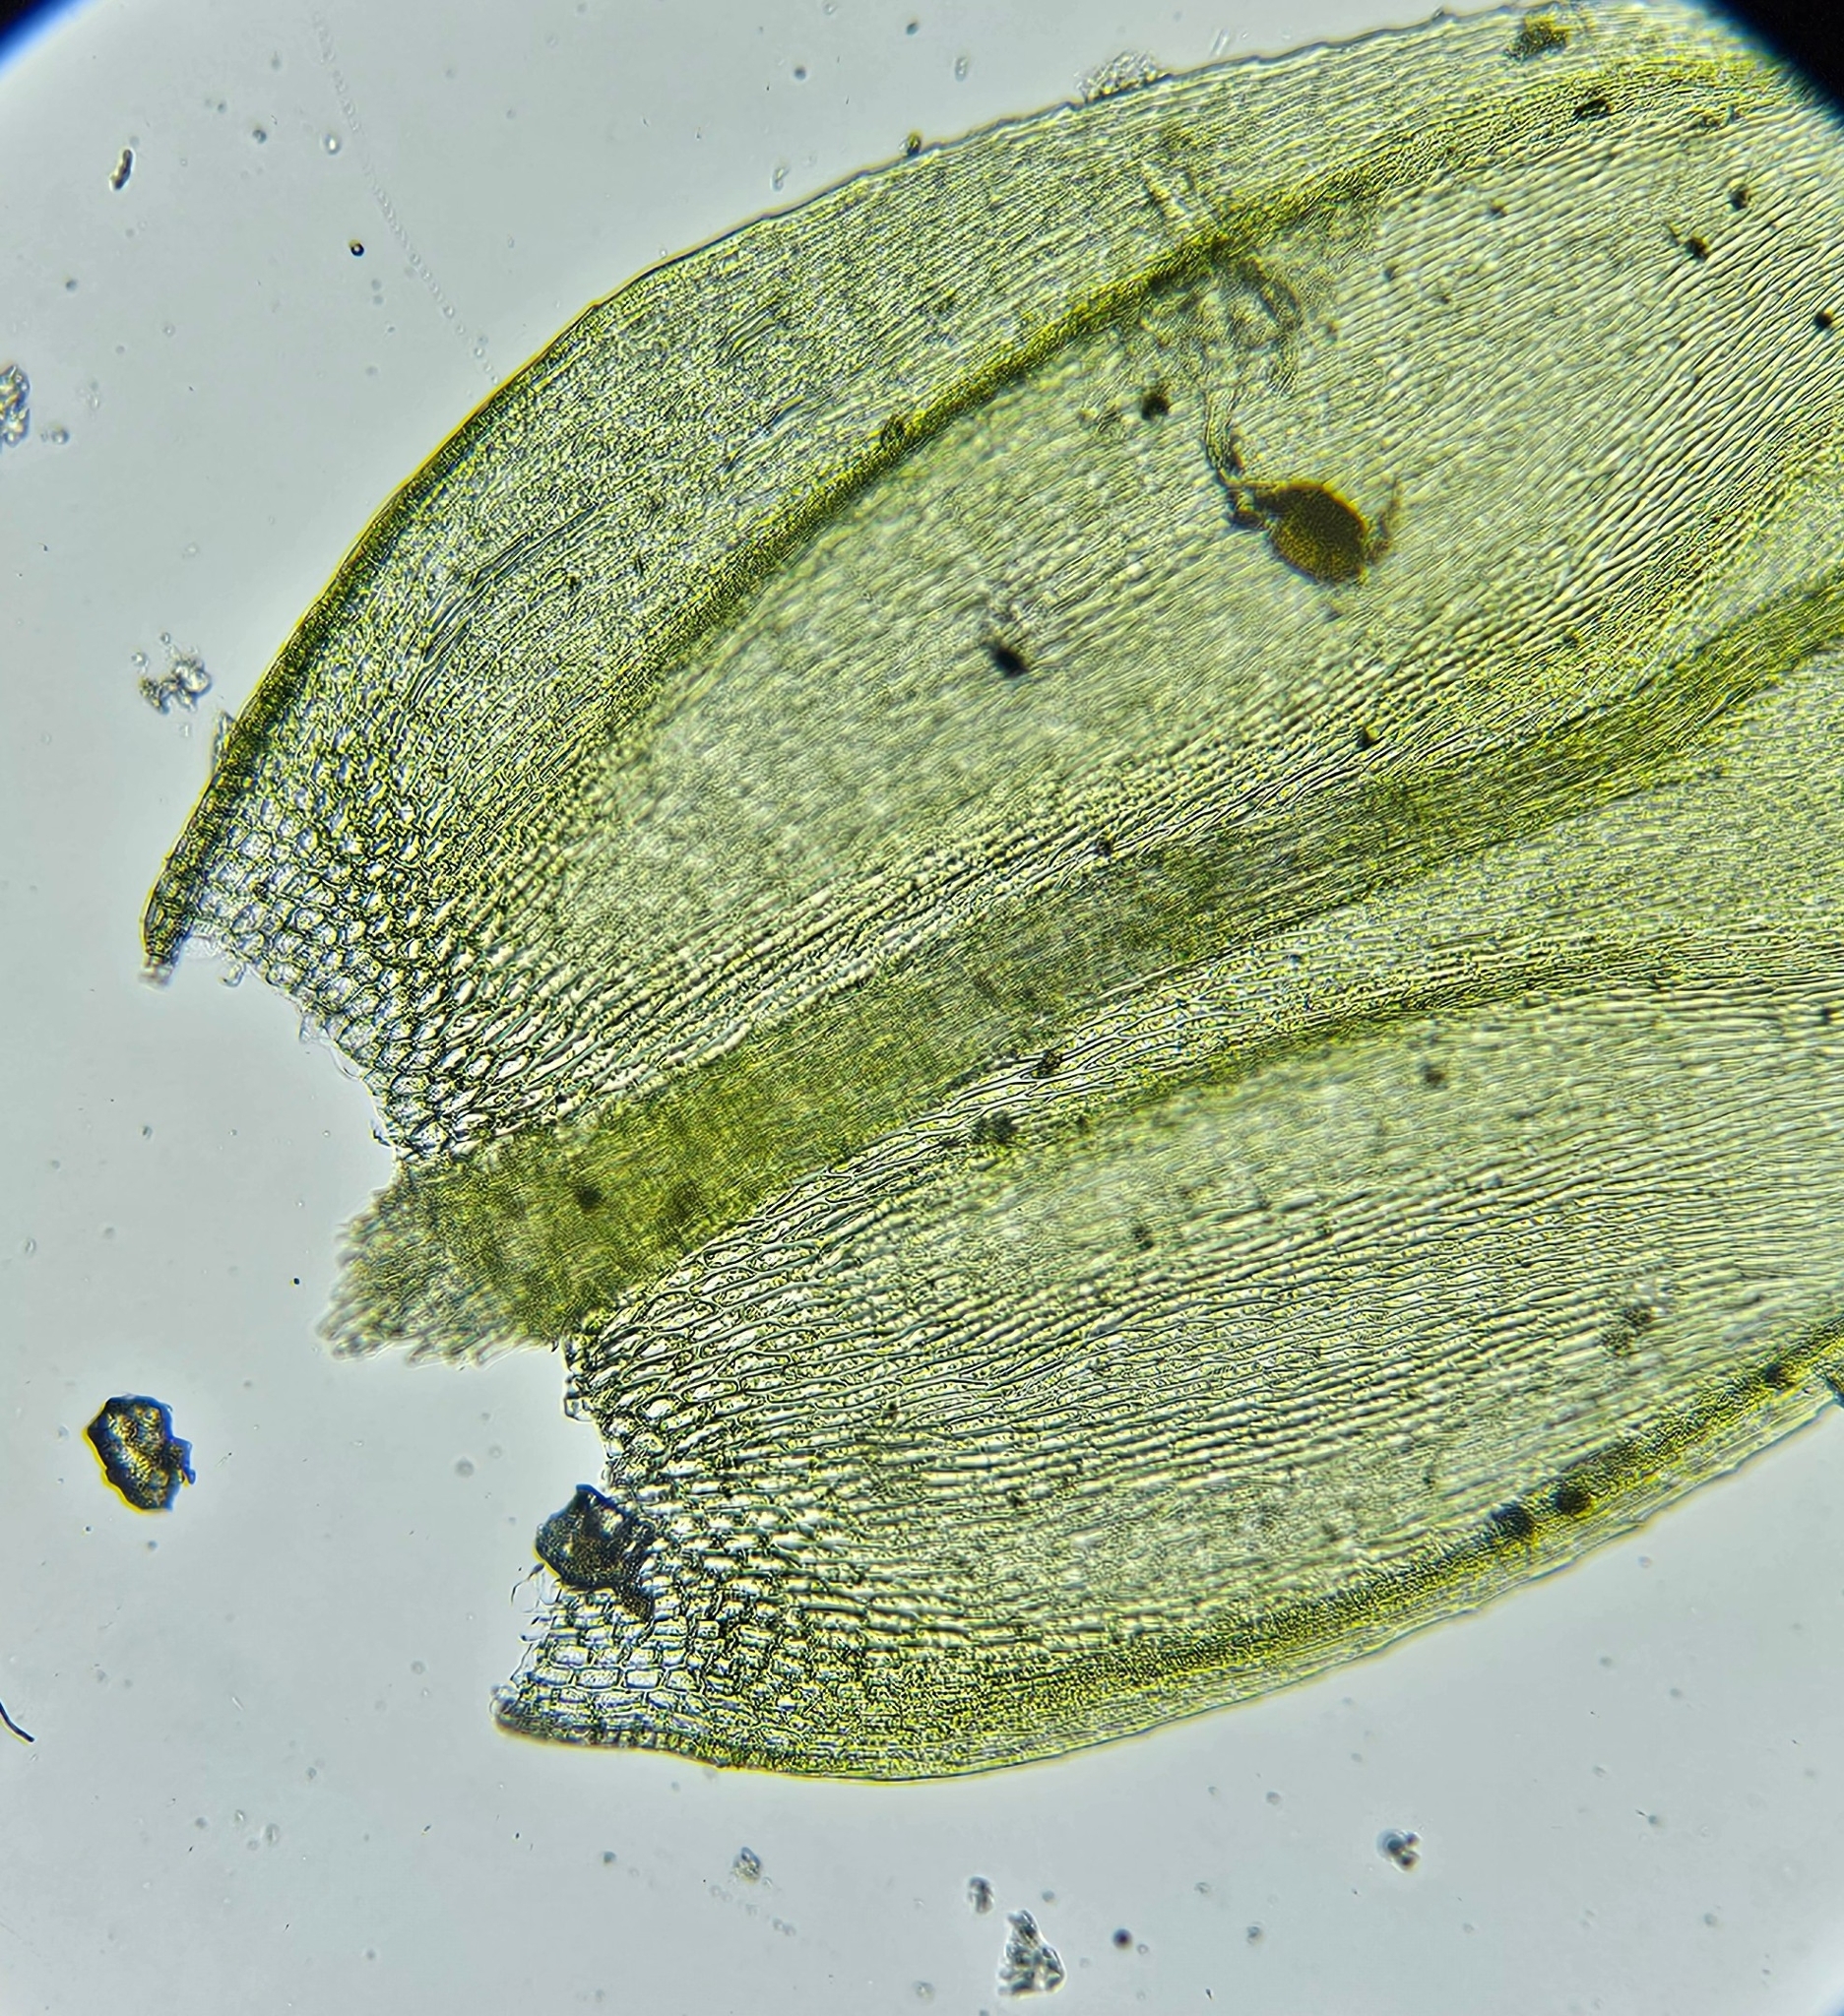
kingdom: Plantae
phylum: Bryophyta
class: Bryopsida
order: Hypnales
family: Brachytheciaceae
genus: Cirriphyllum
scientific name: Cirriphyllum crassinervium
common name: Beech feather-moss
